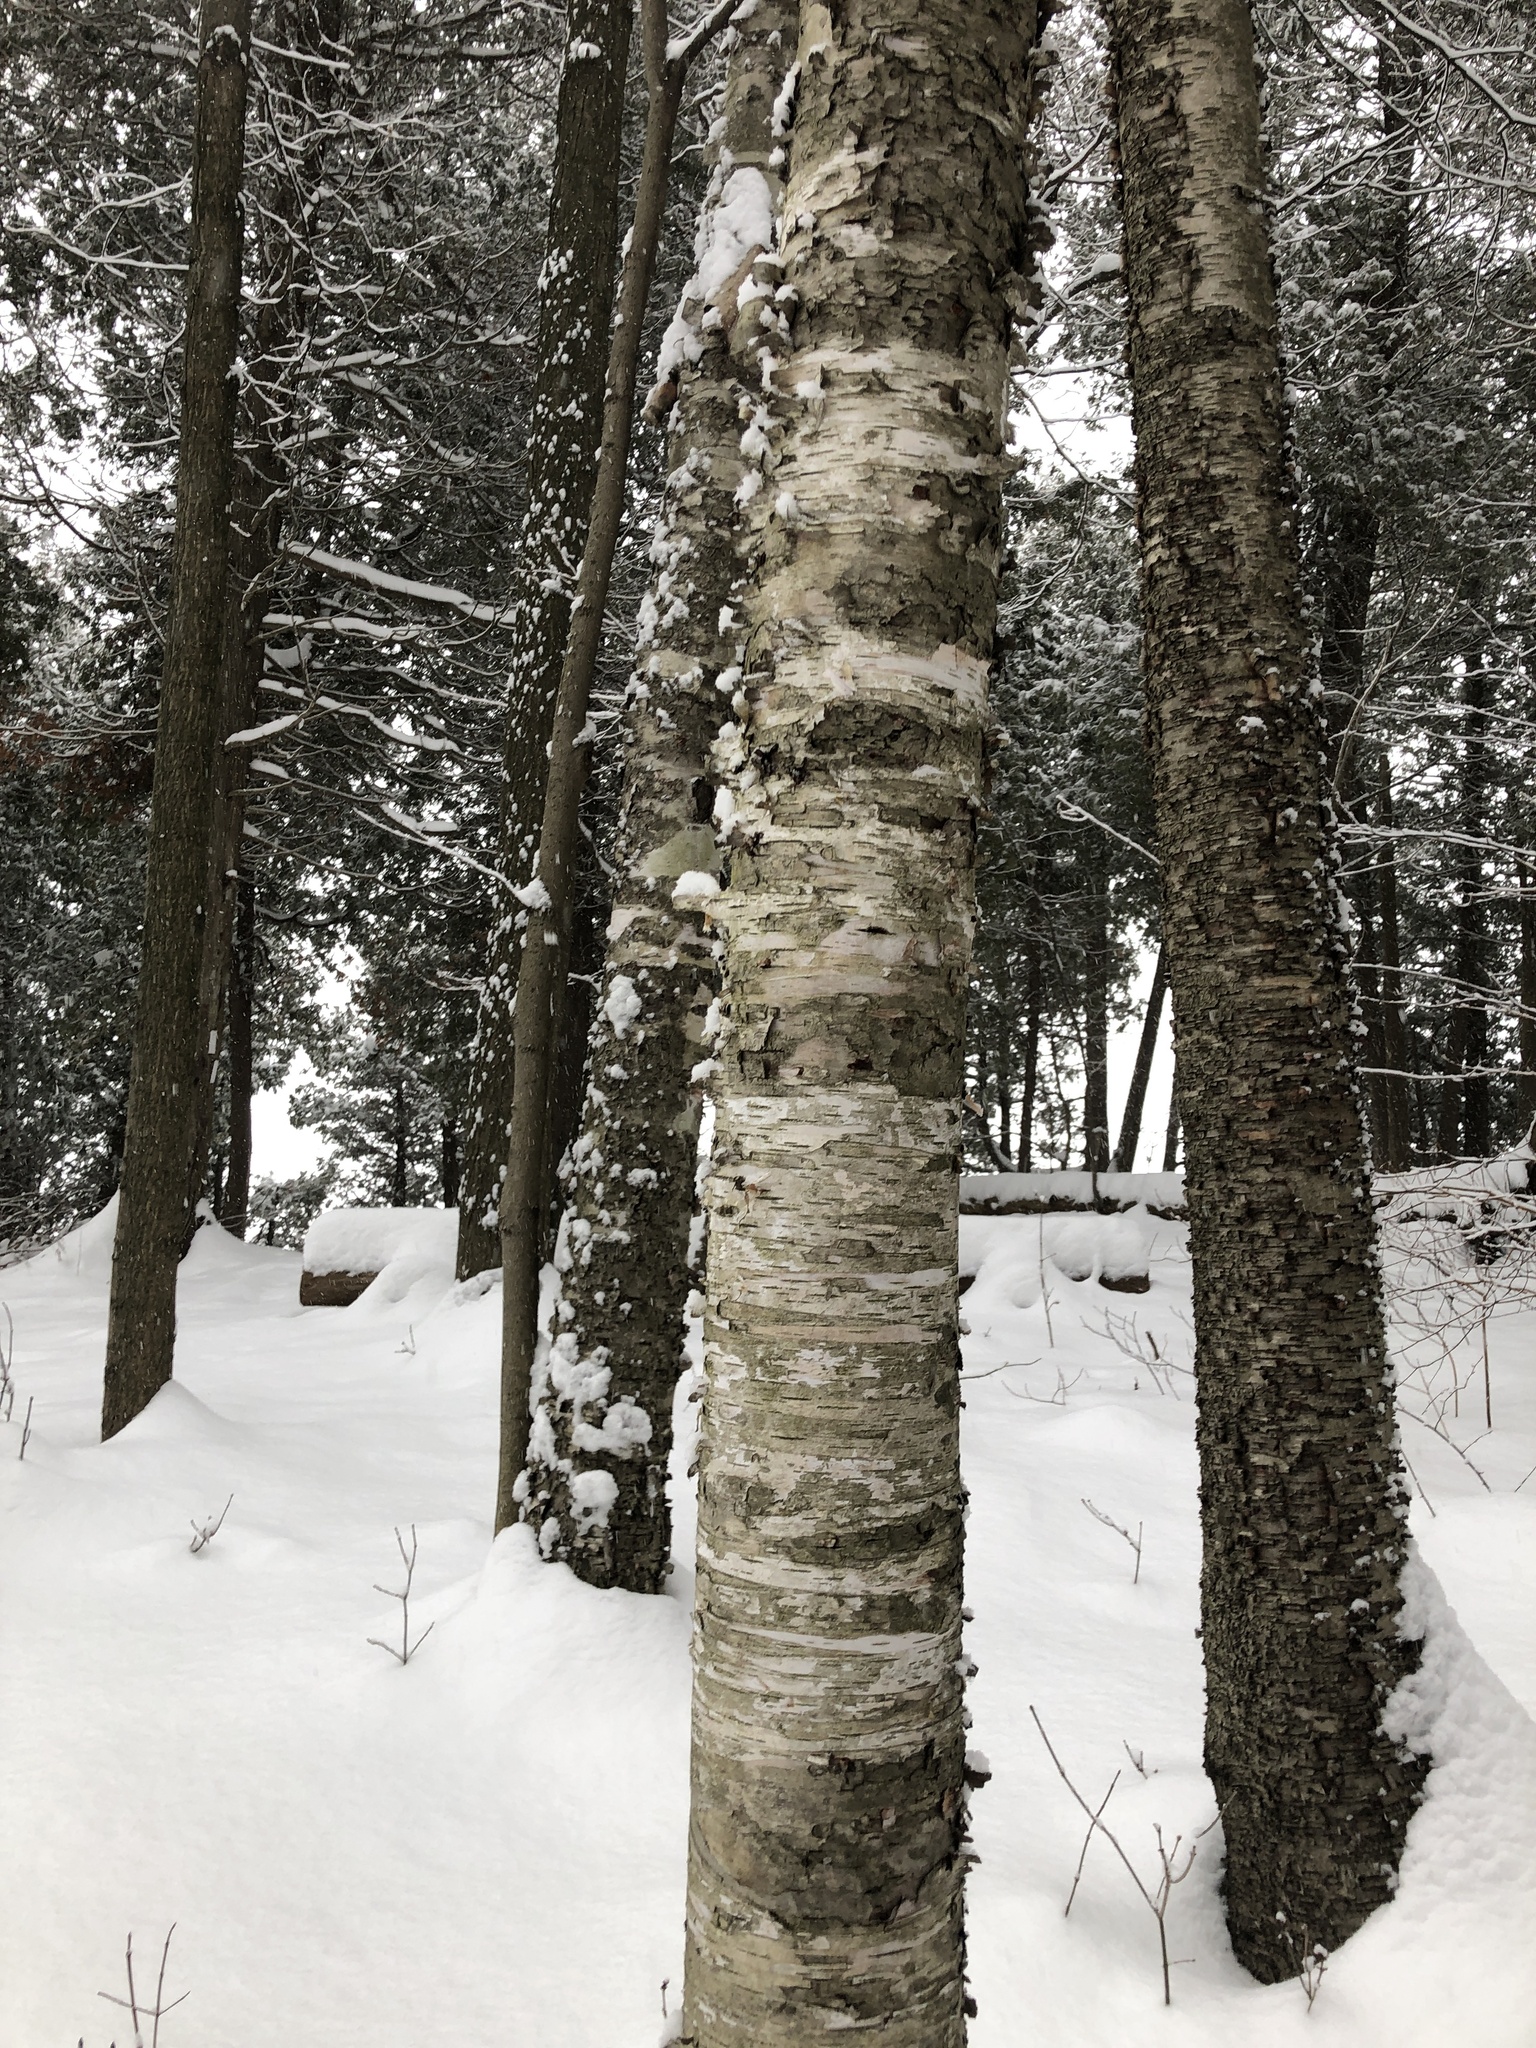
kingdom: Plantae
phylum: Tracheophyta
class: Magnoliopsida
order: Fagales
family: Betulaceae
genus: Betula
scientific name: Betula papyrifera
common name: Paper birch
